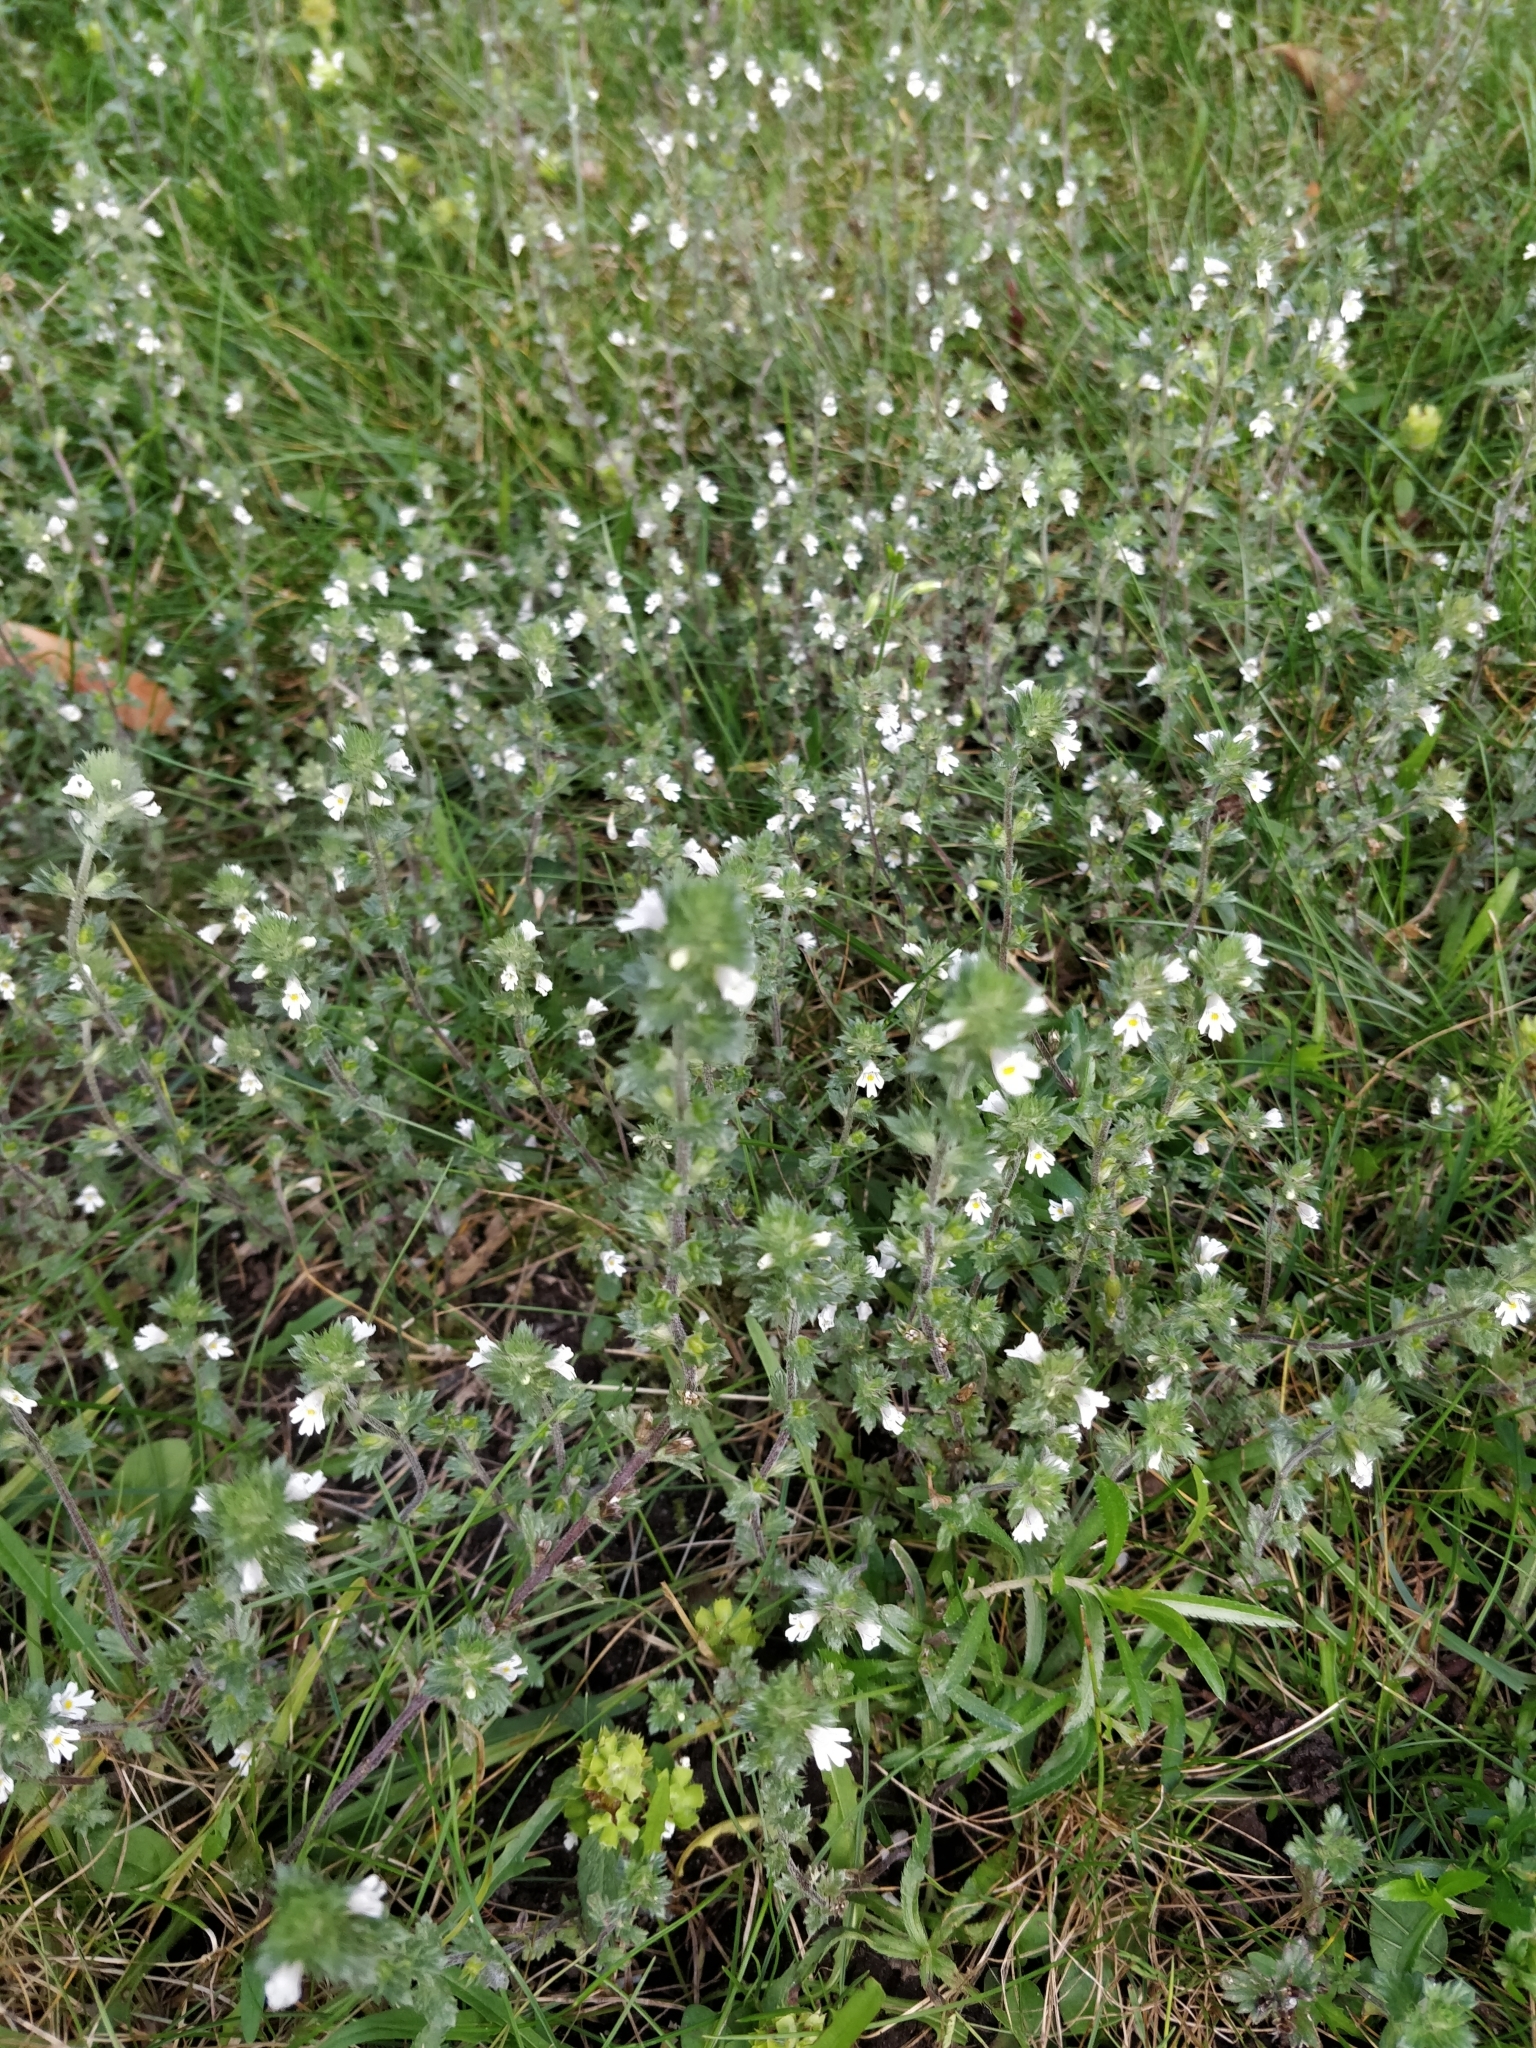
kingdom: Plantae
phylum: Tracheophyta
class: Magnoliopsida
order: Lamiales
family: Orobanchaceae
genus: Euphrasia
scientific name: Euphrasia nemorosa
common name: Common eyebright
